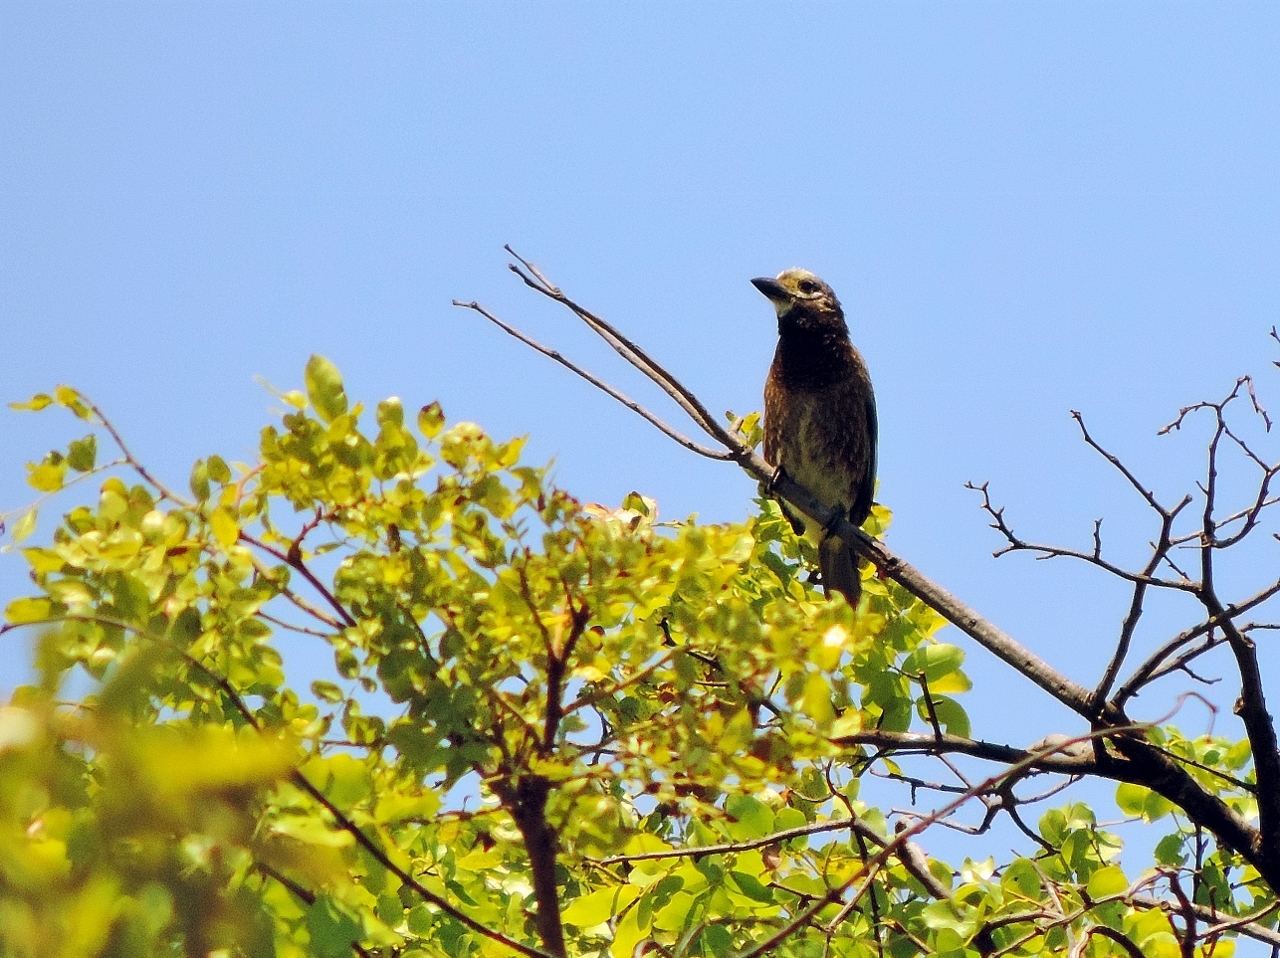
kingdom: Animalia
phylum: Chordata
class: Aves
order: Piciformes
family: Lybiidae
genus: Stactolaema
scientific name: Stactolaema whytii
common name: Whyte's barbet
